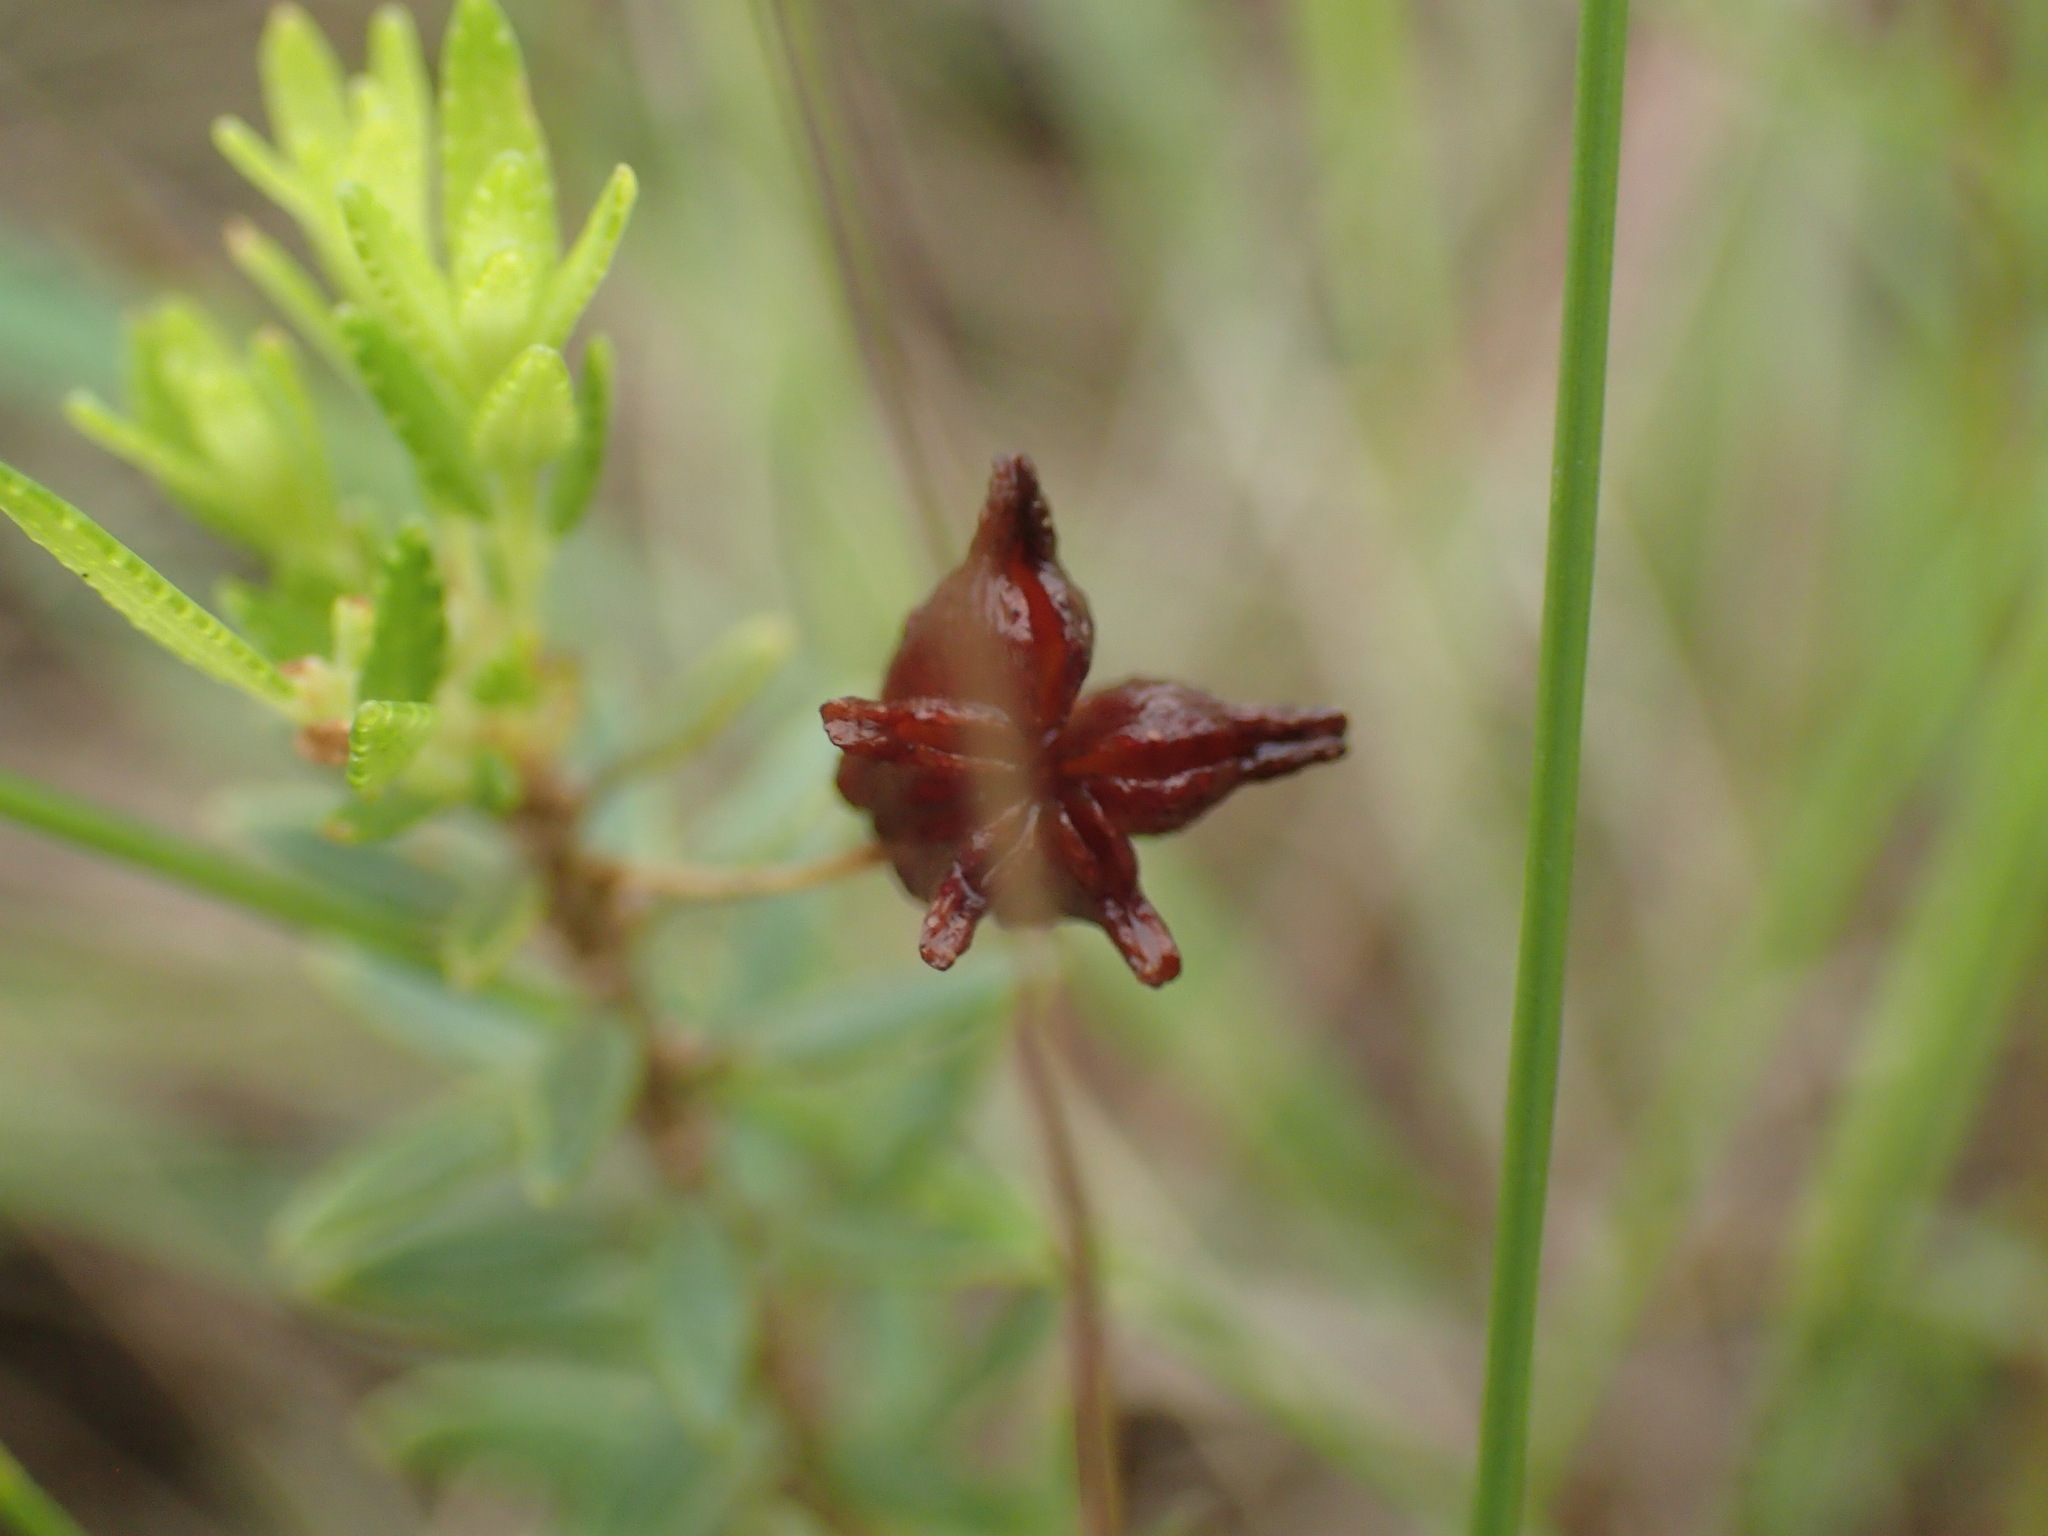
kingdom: Plantae
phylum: Tracheophyta
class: Magnoliopsida
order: Sapindales
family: Rutaceae
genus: Agathosma
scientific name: Agathosma ovata
